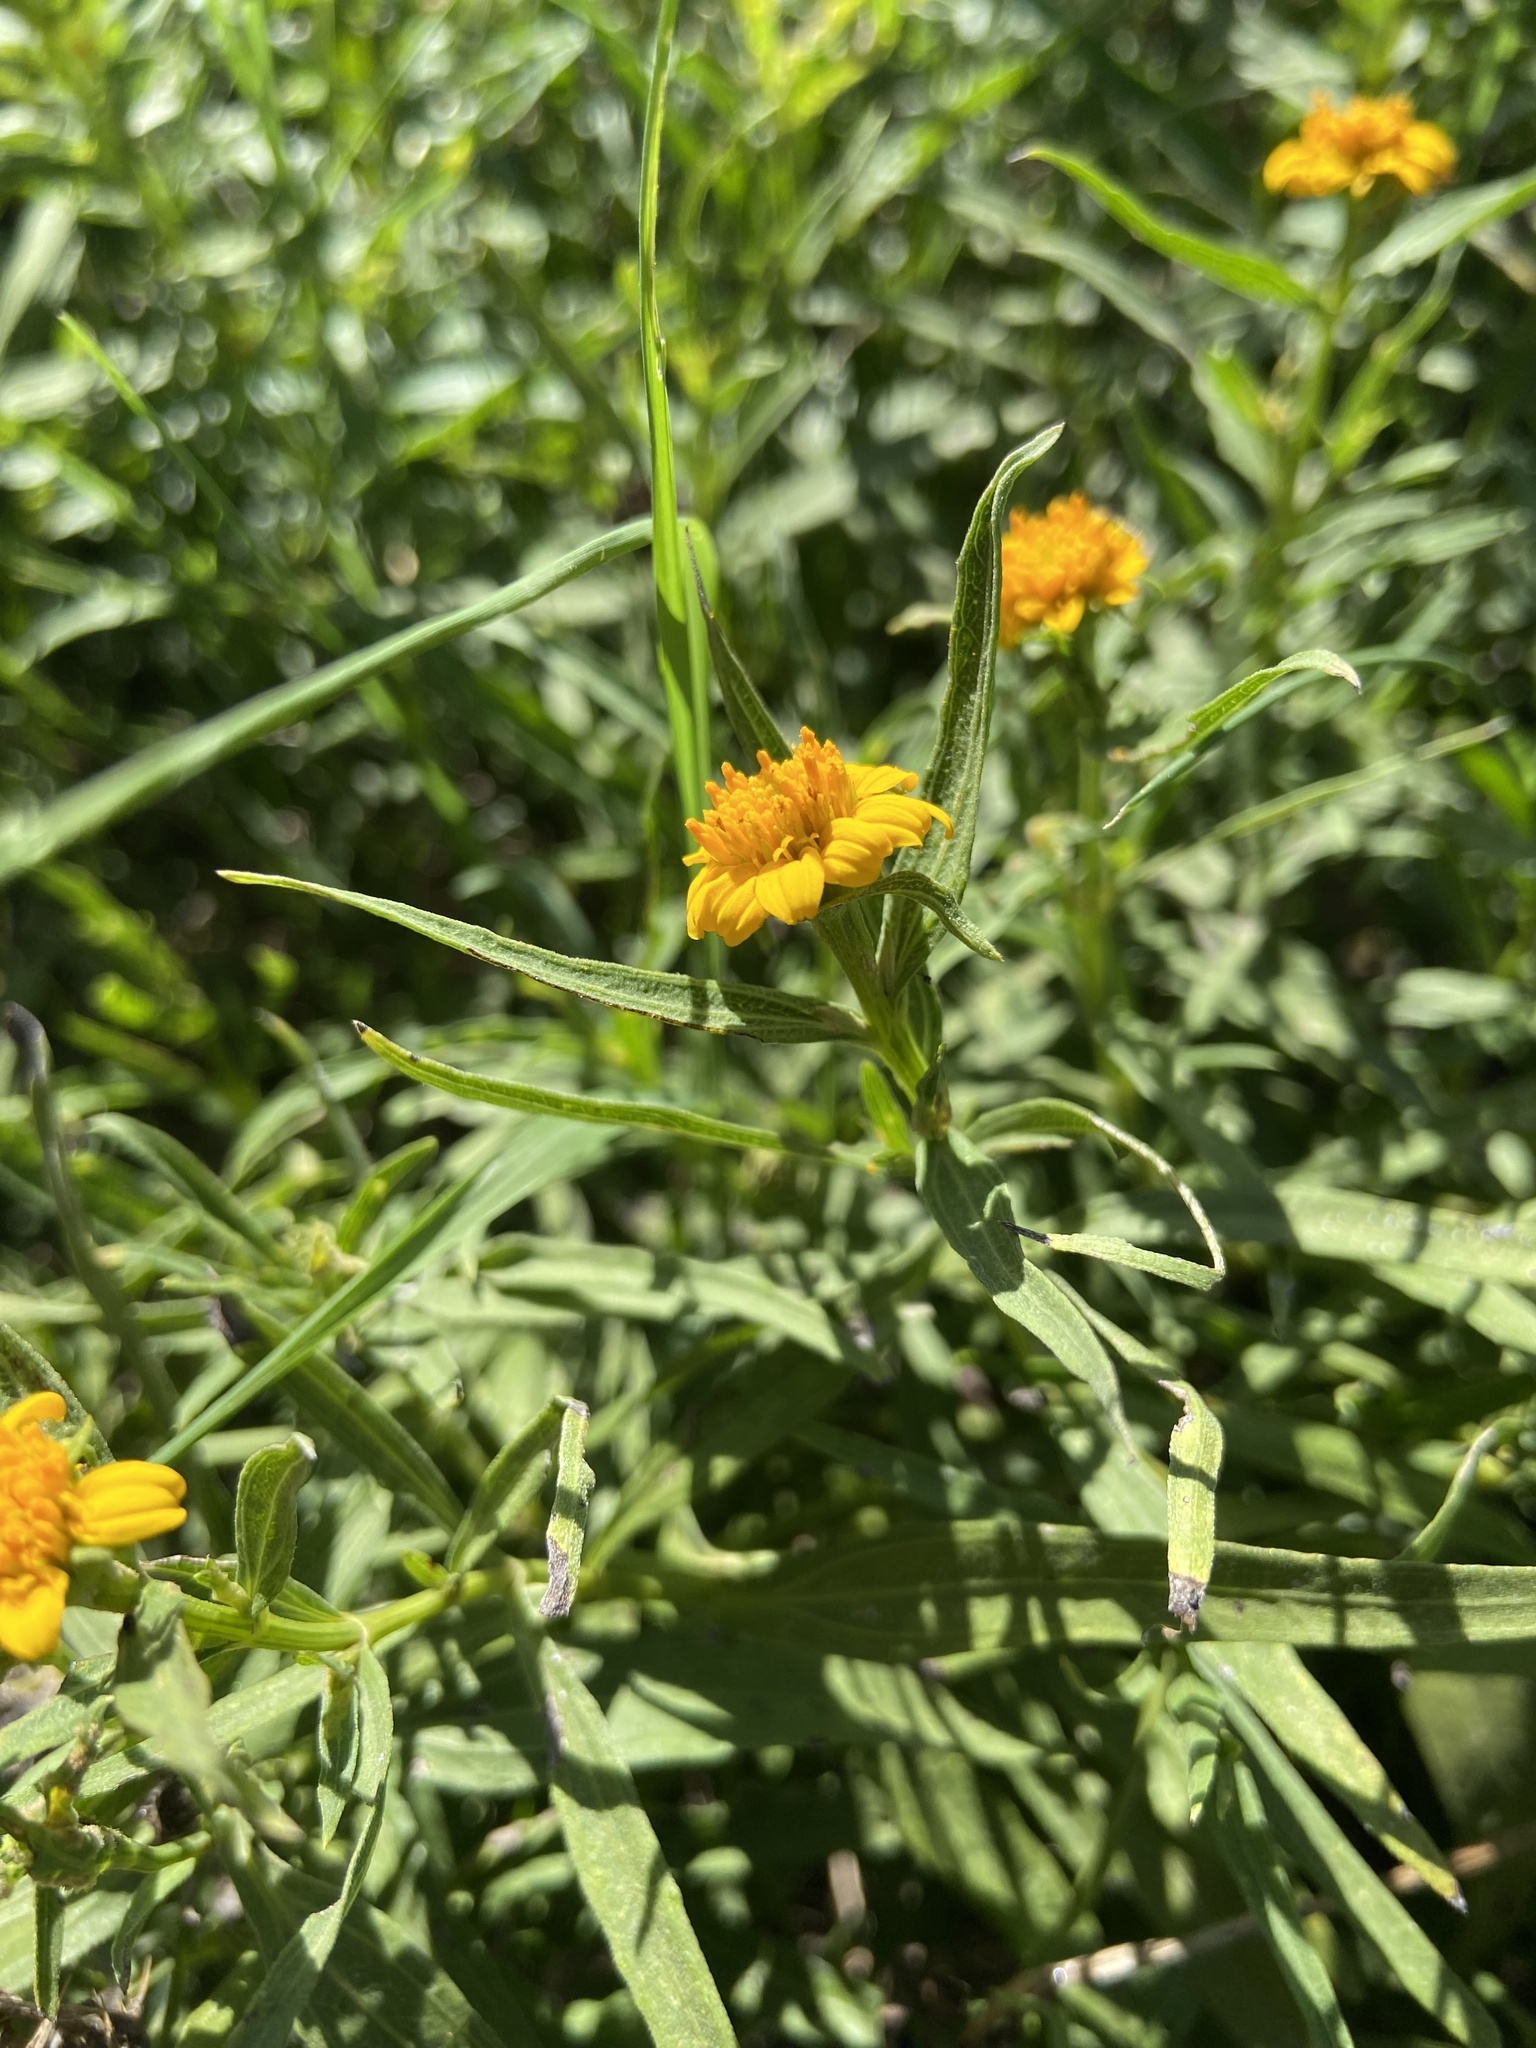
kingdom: Plantae
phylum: Tracheophyta
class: Magnoliopsida
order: Asterales
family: Asteraceae
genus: Pascalia
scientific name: Pascalia glauca
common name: Beach creeping oxeye
